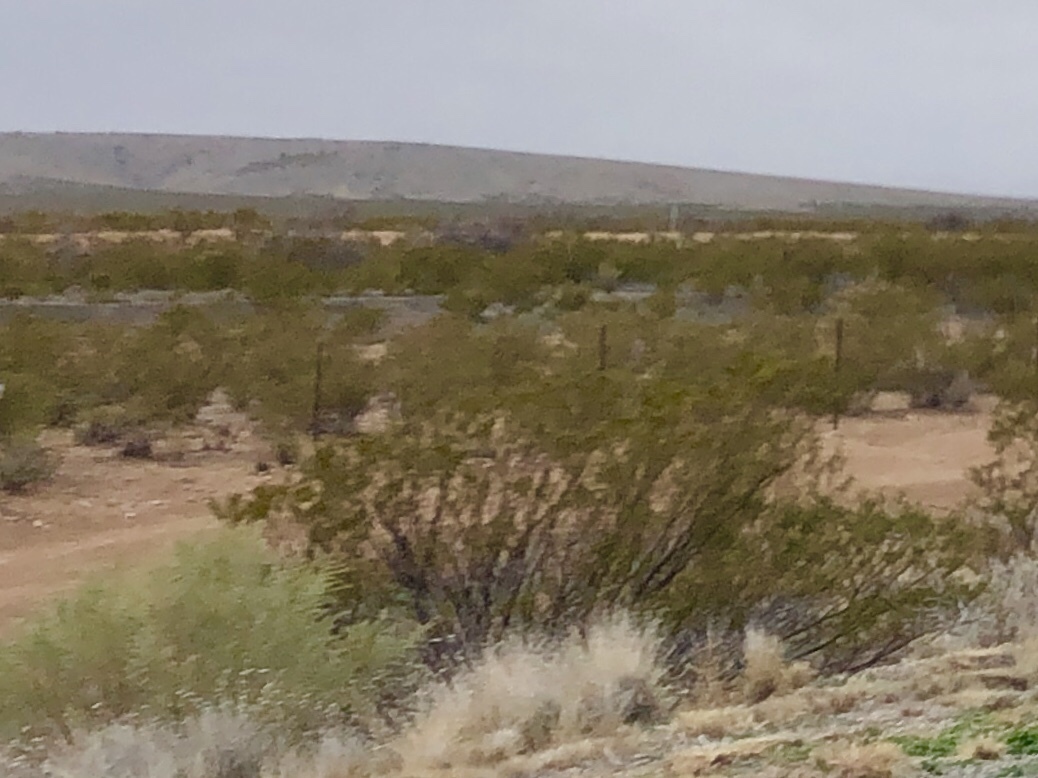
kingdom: Plantae
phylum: Tracheophyta
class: Magnoliopsida
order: Zygophyllales
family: Zygophyllaceae
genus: Larrea
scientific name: Larrea tridentata
